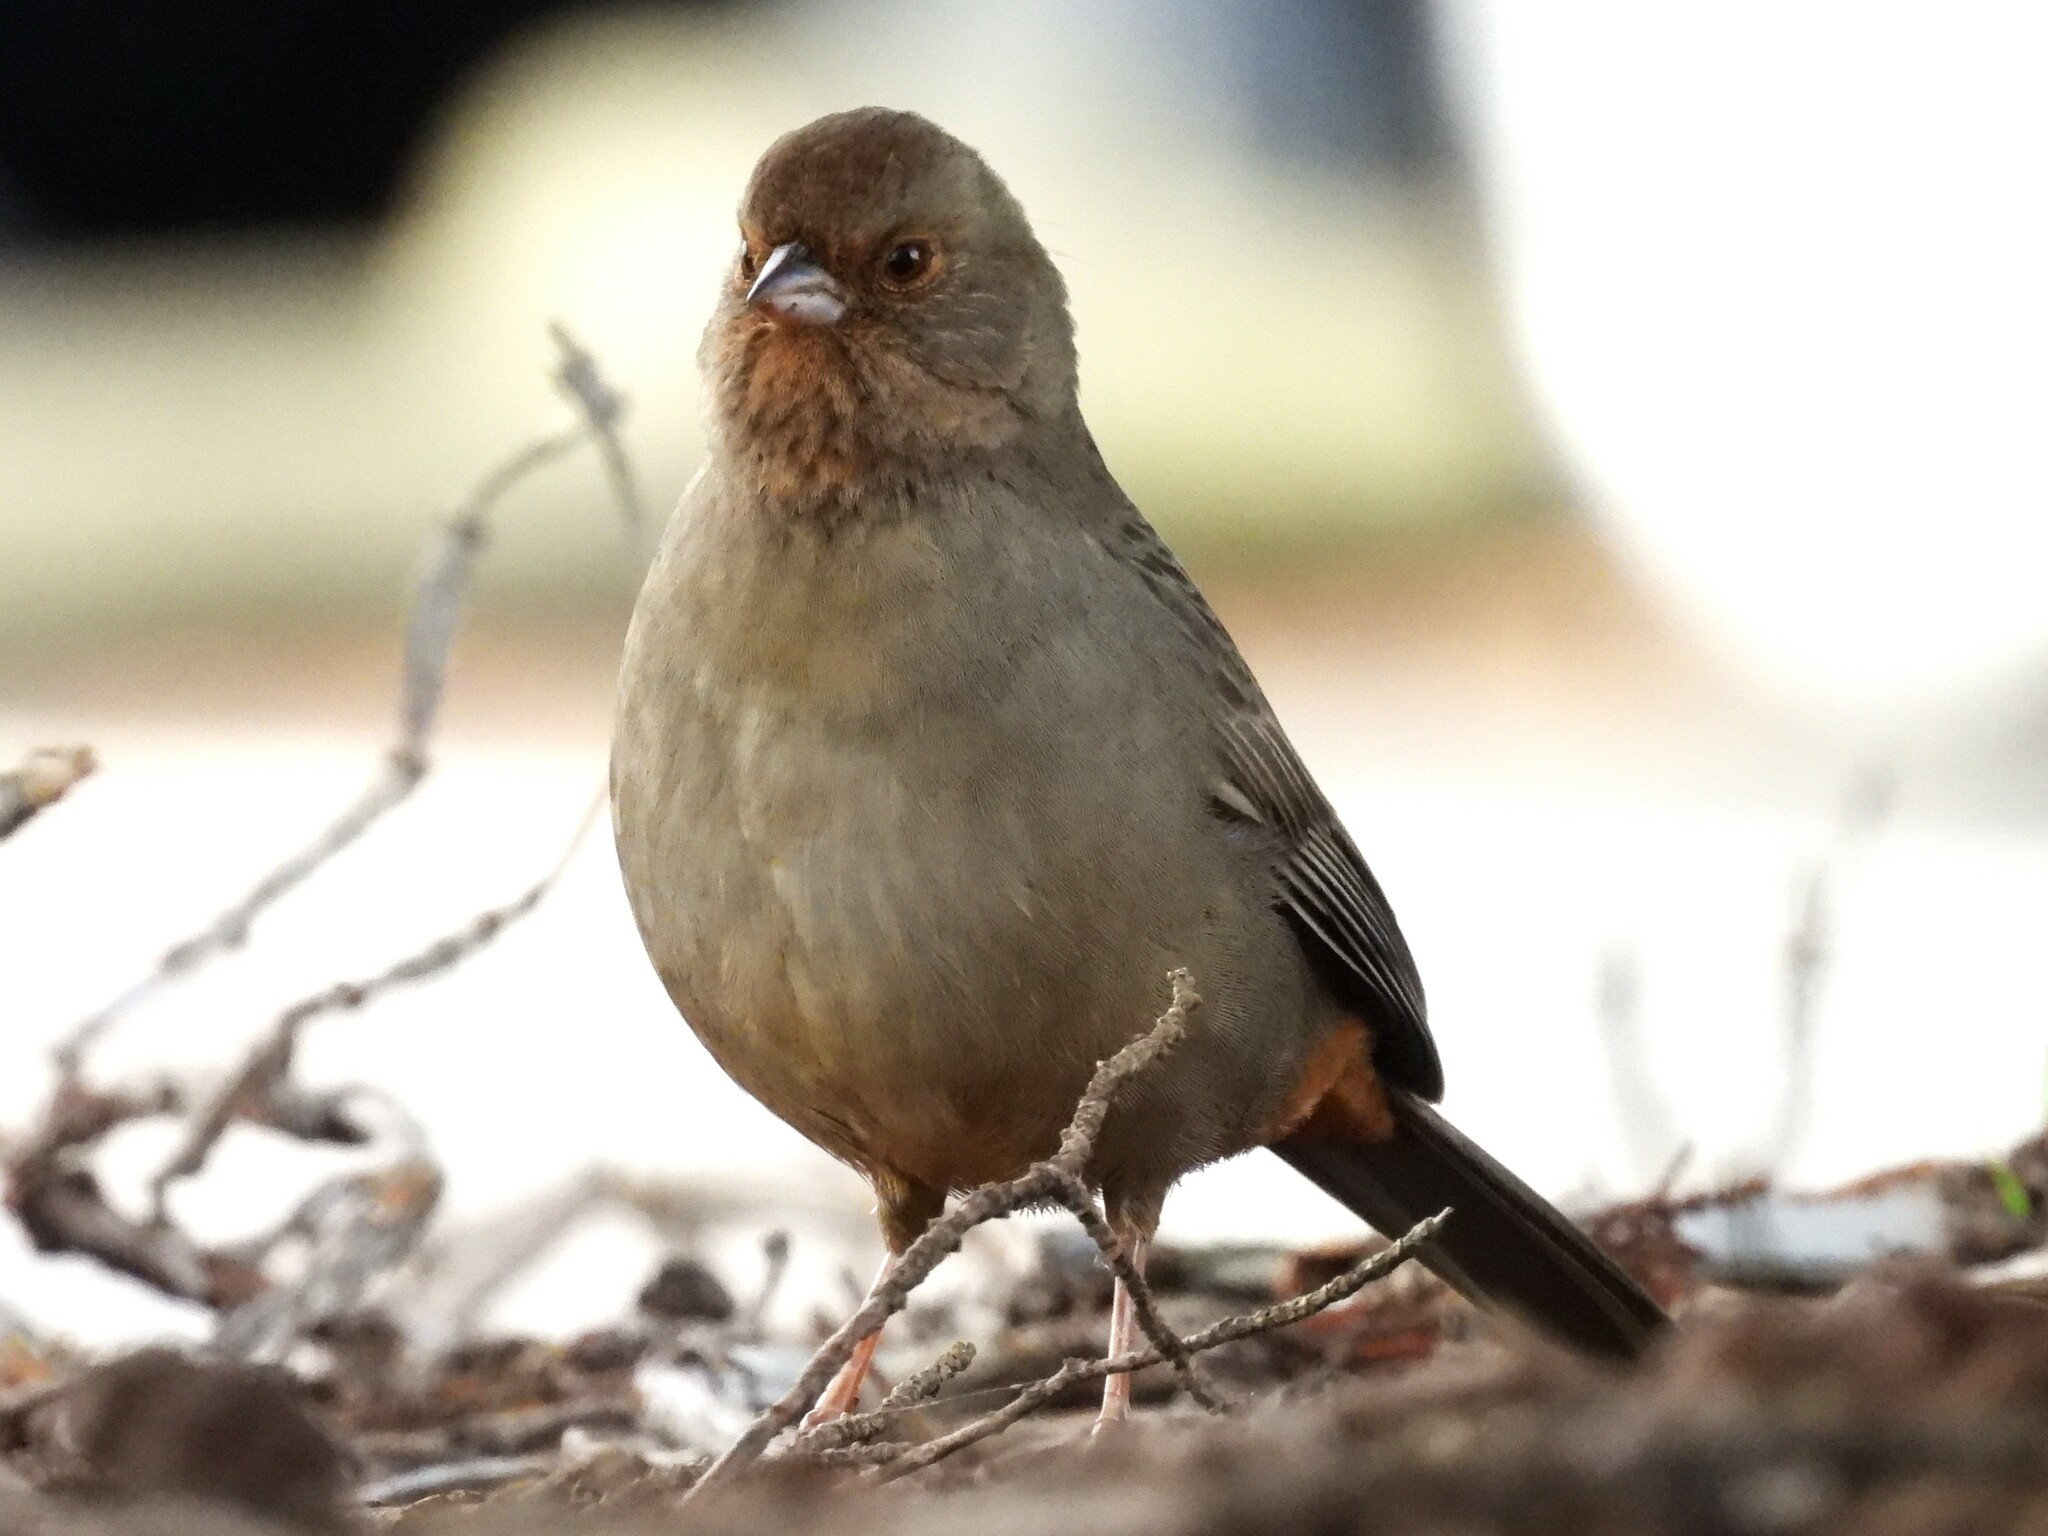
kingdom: Animalia
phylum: Chordata
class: Aves
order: Passeriformes
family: Passerellidae
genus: Melozone
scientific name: Melozone crissalis
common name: California towhee
